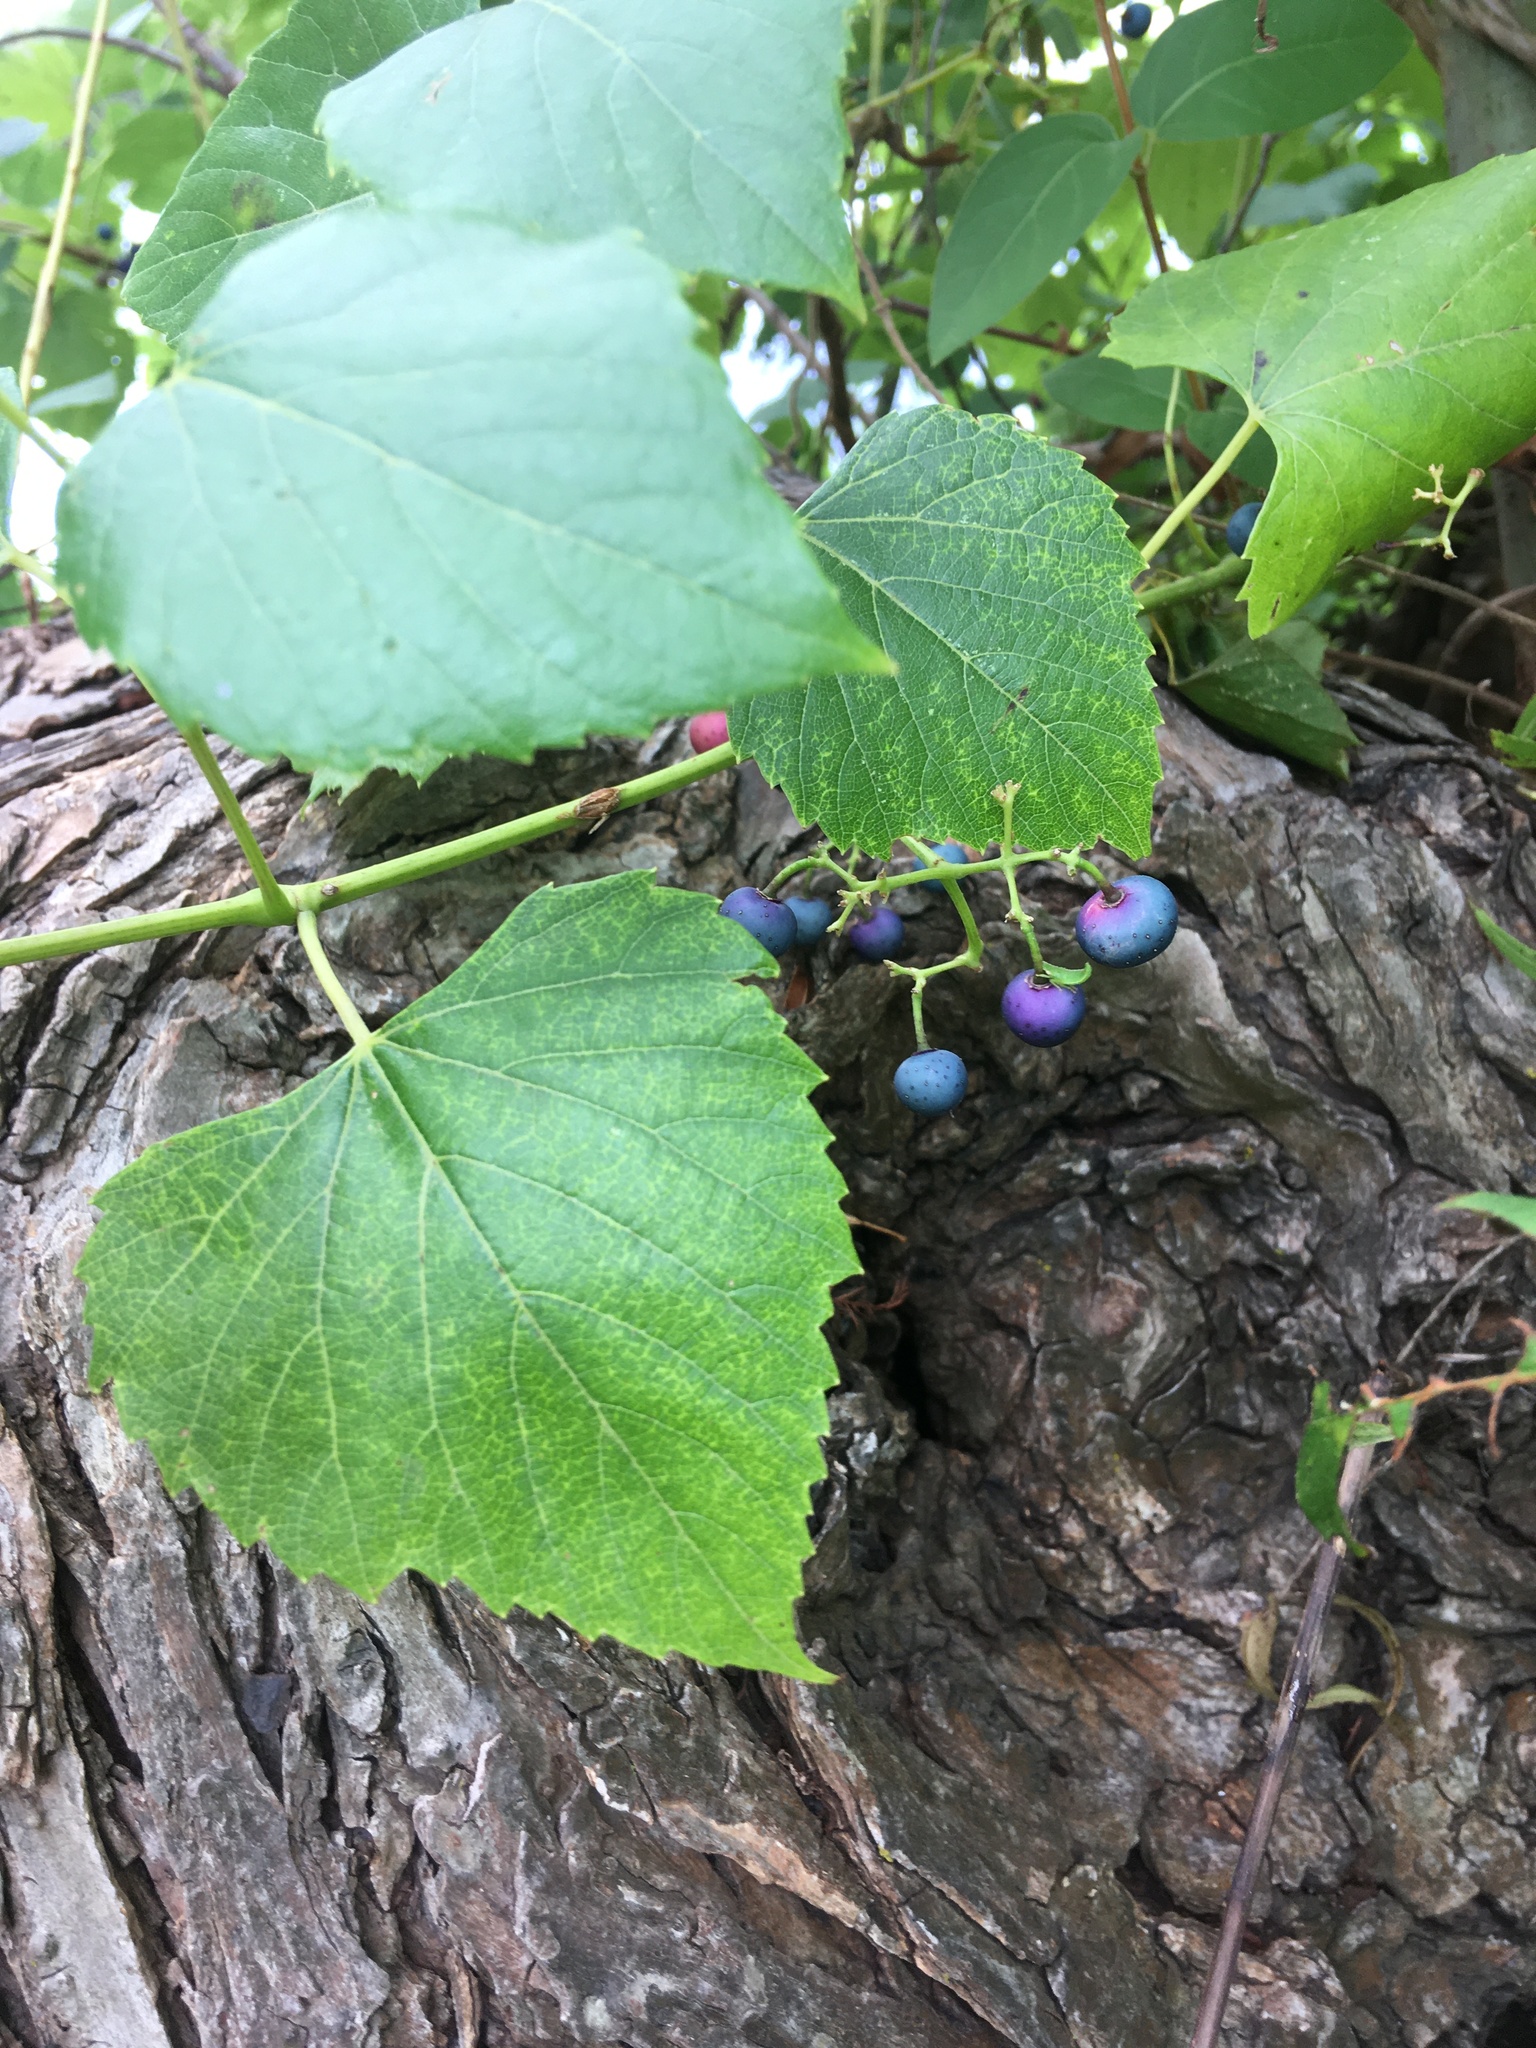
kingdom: Plantae
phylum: Tracheophyta
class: Magnoliopsida
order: Vitales
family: Vitaceae
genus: Ampelopsis
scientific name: Ampelopsis cordata
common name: Heart-leaf ampelopsis
